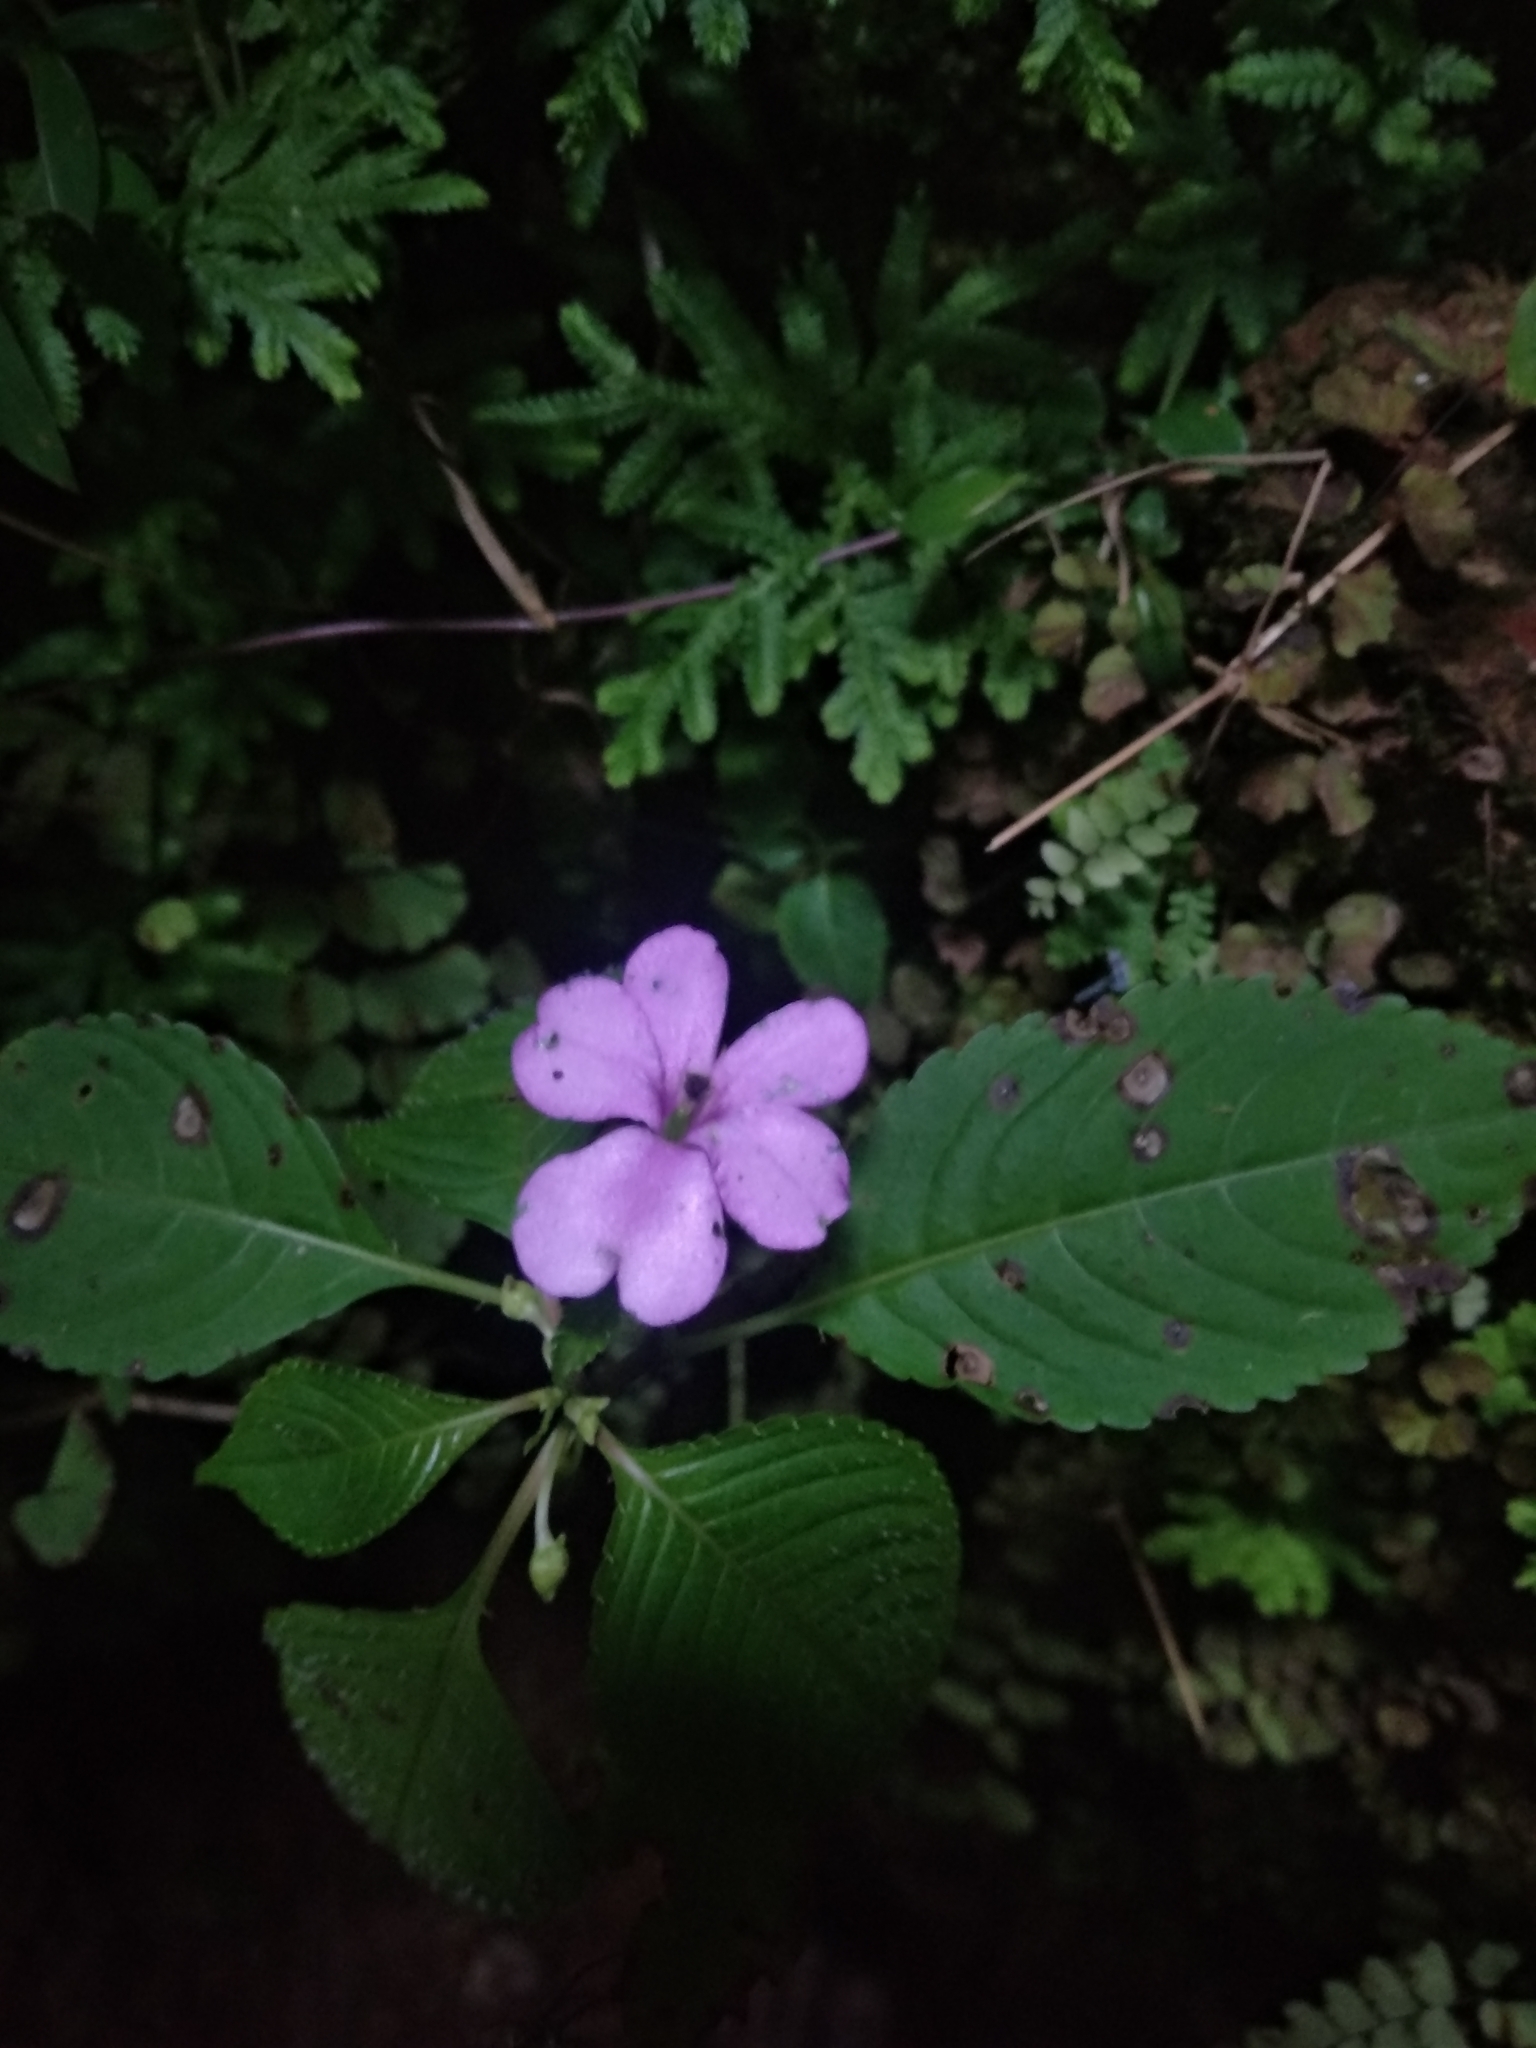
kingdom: Plantae
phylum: Tracheophyta
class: Magnoliopsida
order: Ericales
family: Balsaminaceae
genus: Impatiens
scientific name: Impatiens walleriana
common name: Buzzy lizzy
